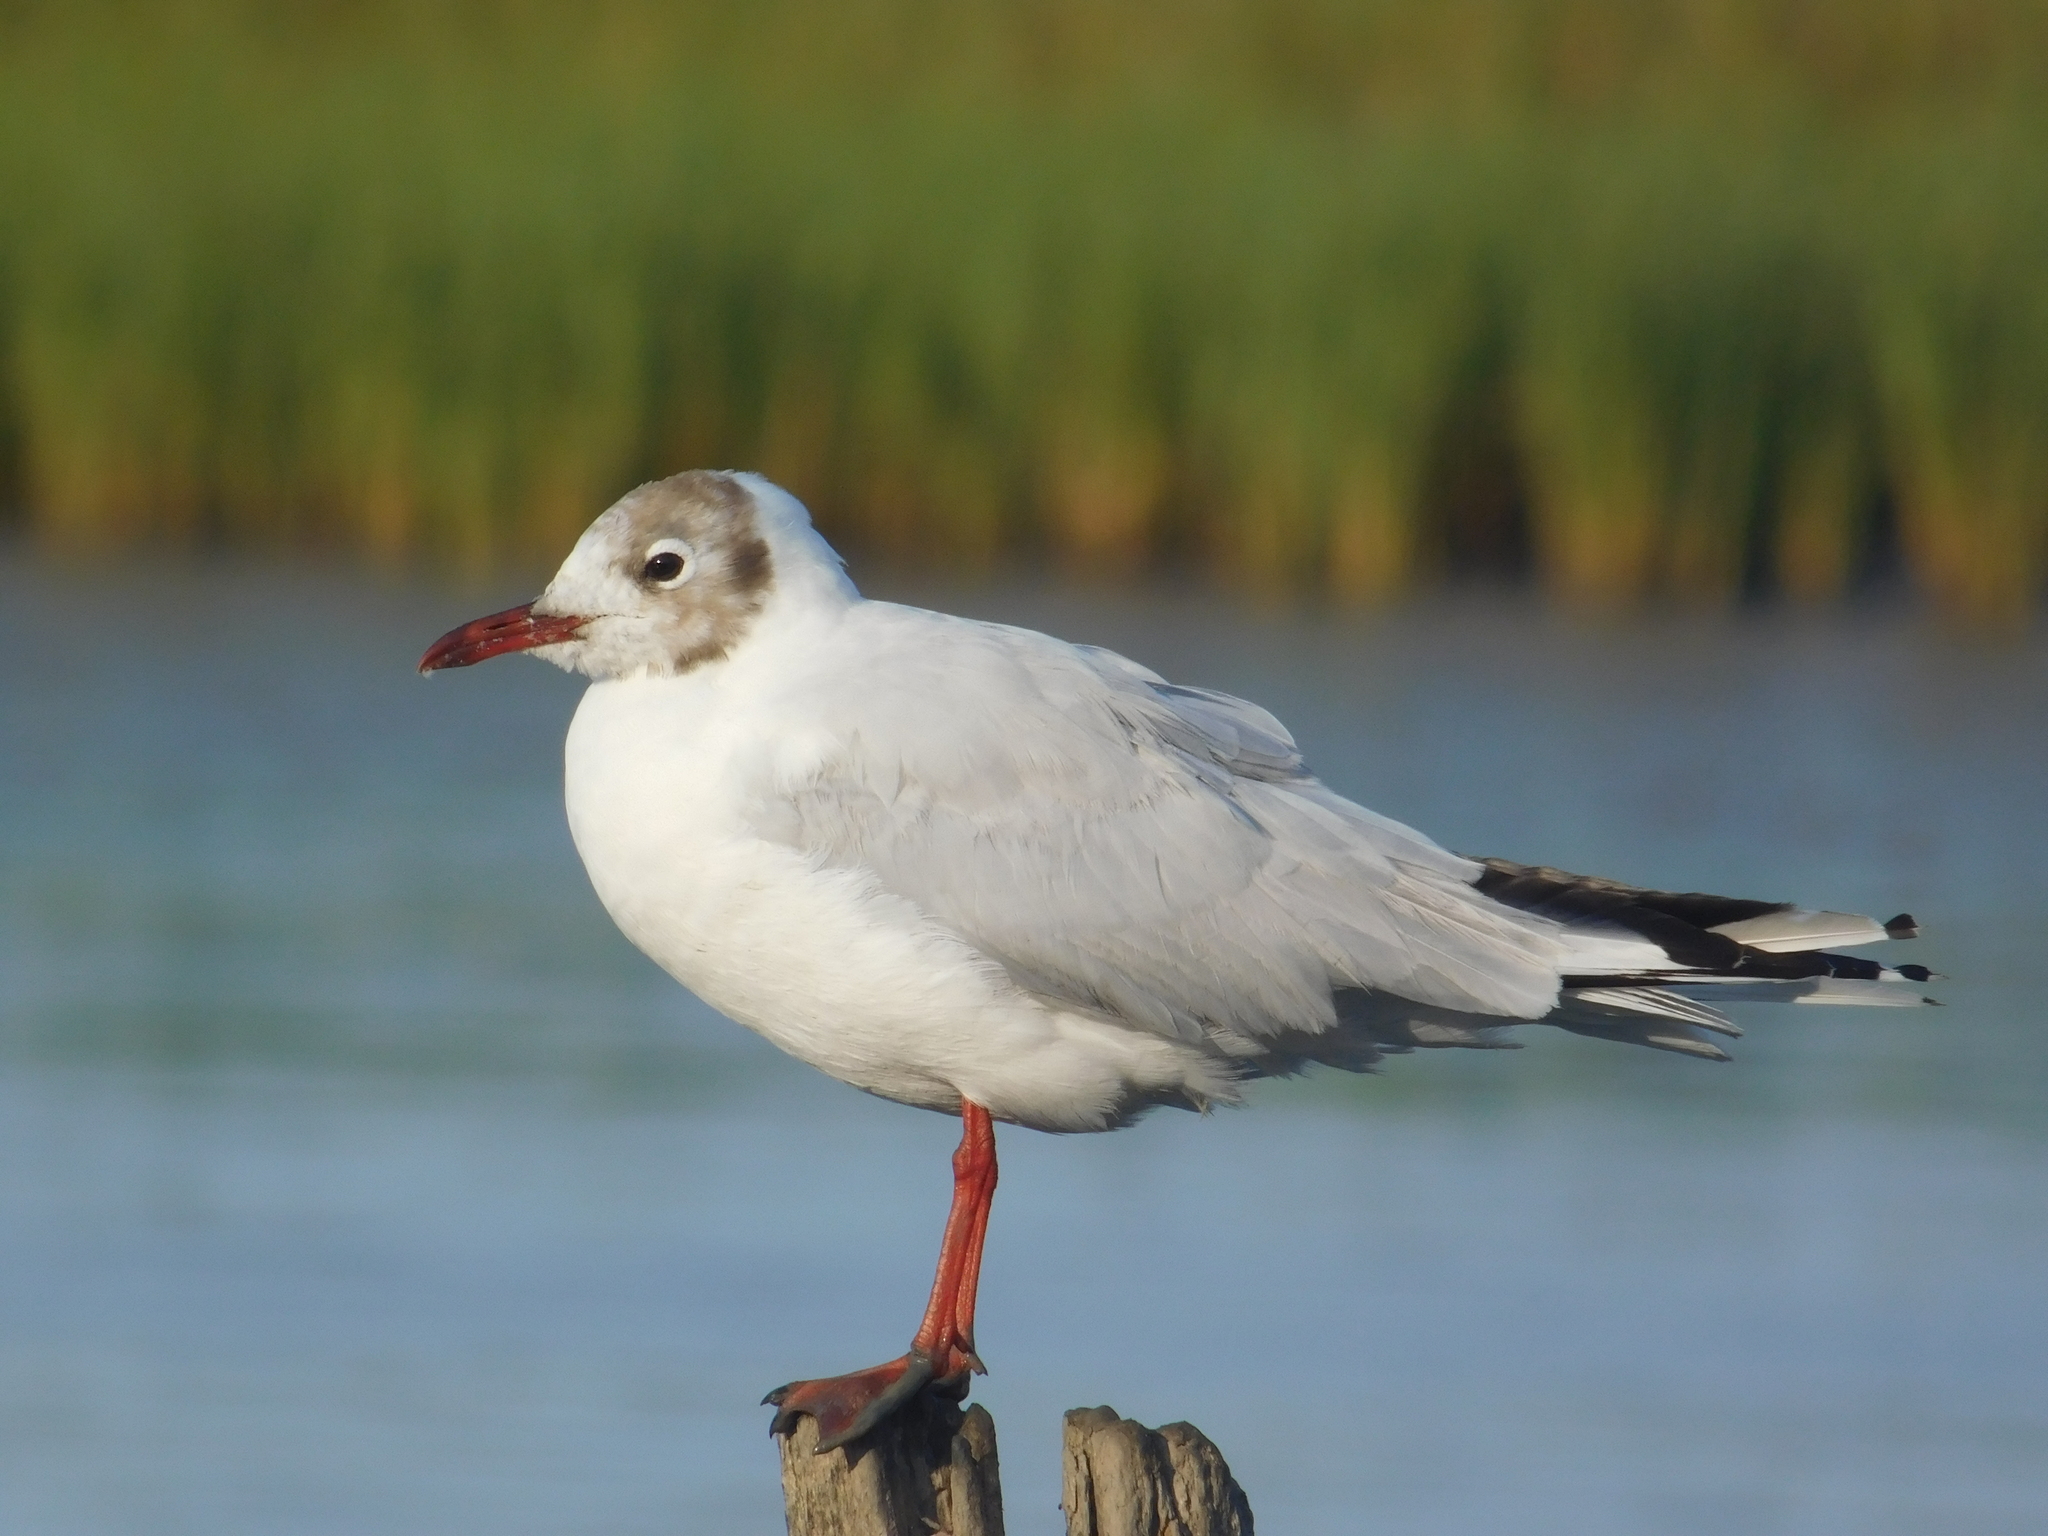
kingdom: Animalia
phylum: Chordata
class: Aves
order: Charadriiformes
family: Laridae
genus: Chroicocephalus
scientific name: Chroicocephalus maculipennis
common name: Brown-hooded gull
